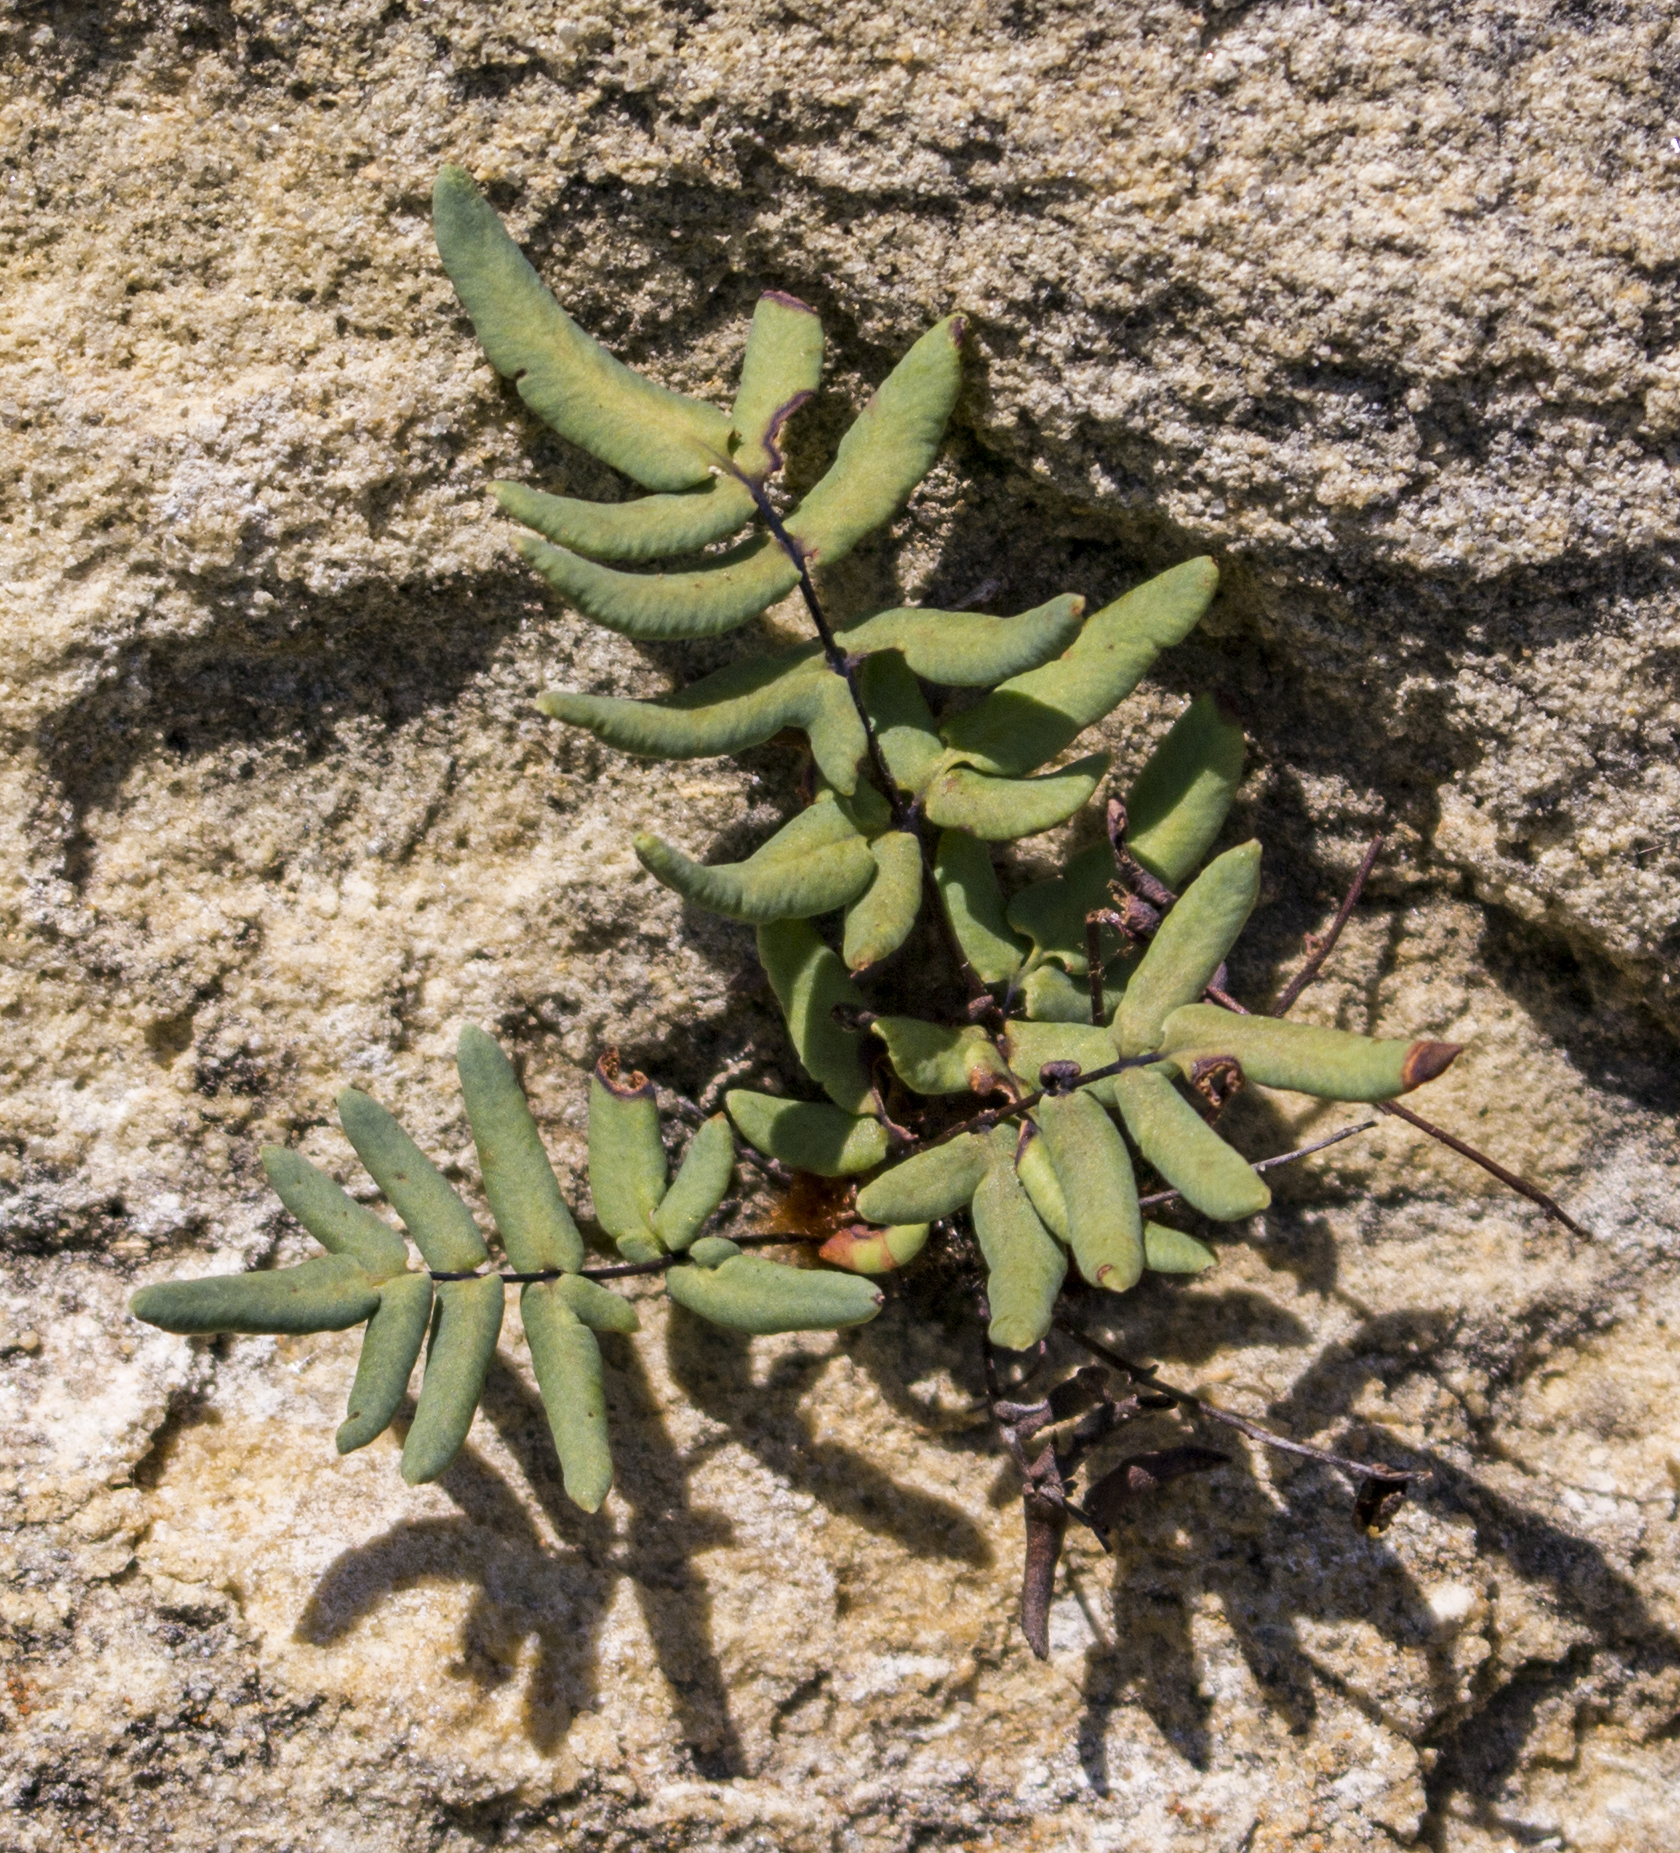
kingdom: Plantae
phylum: Tracheophyta
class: Polypodiopsida
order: Polypodiales
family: Pteridaceae
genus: Pellaea
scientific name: Pellaea glabella
